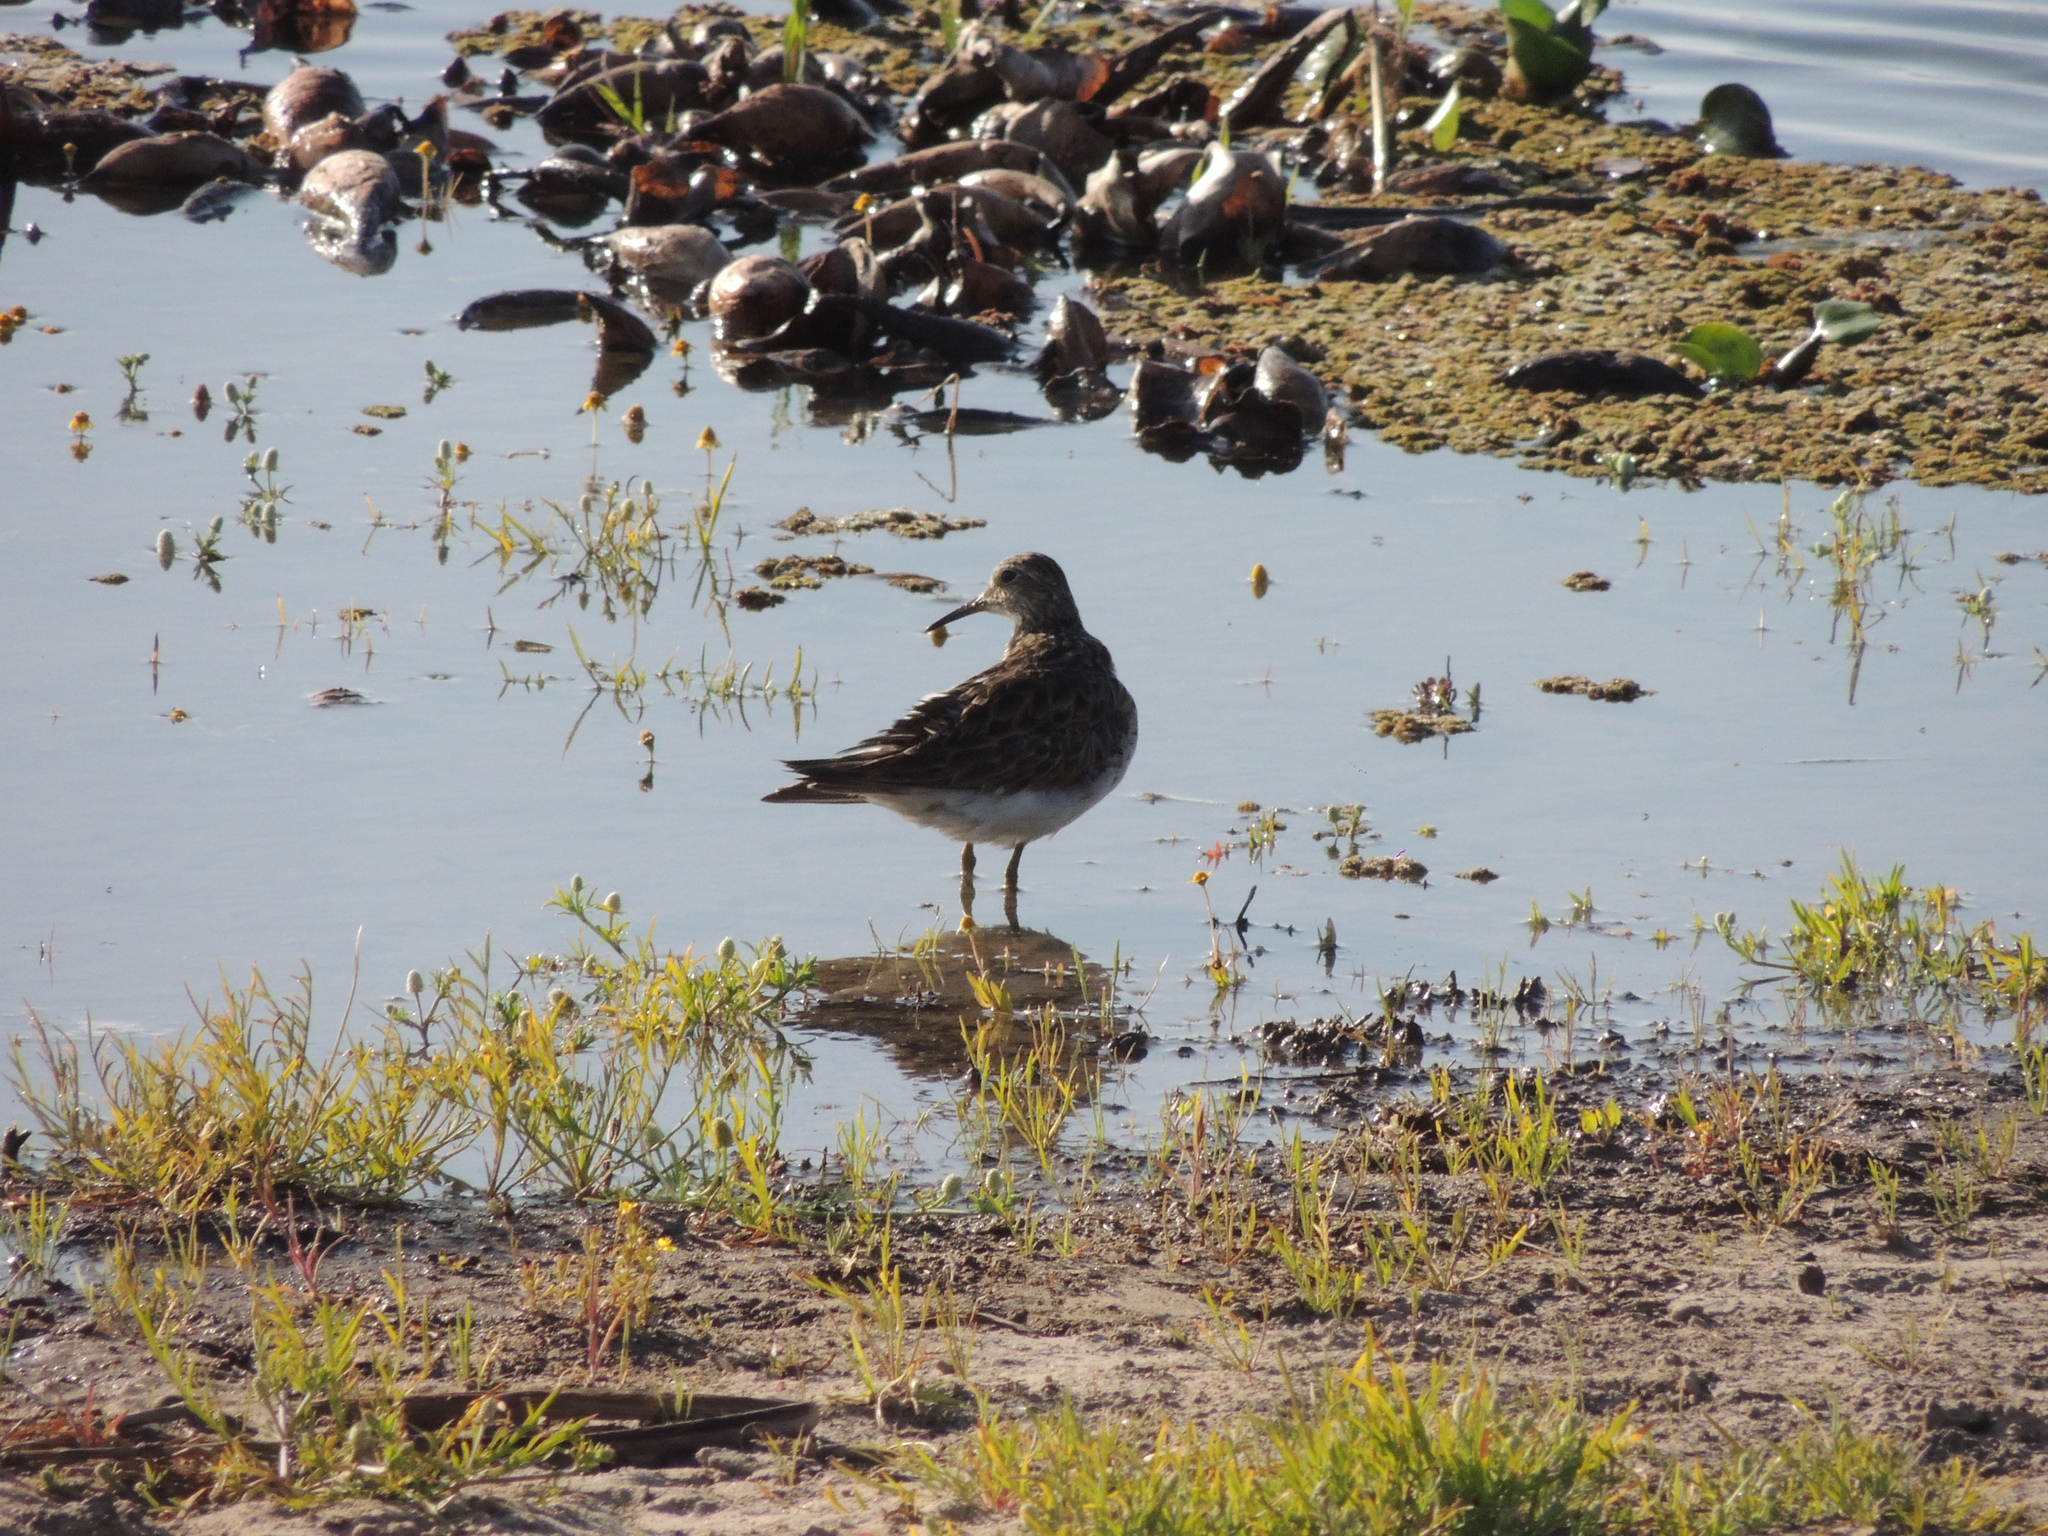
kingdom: Animalia
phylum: Chordata
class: Aves
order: Charadriiformes
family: Scolopacidae
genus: Calidris
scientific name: Calidris melanotos
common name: Pectoral sandpiper
